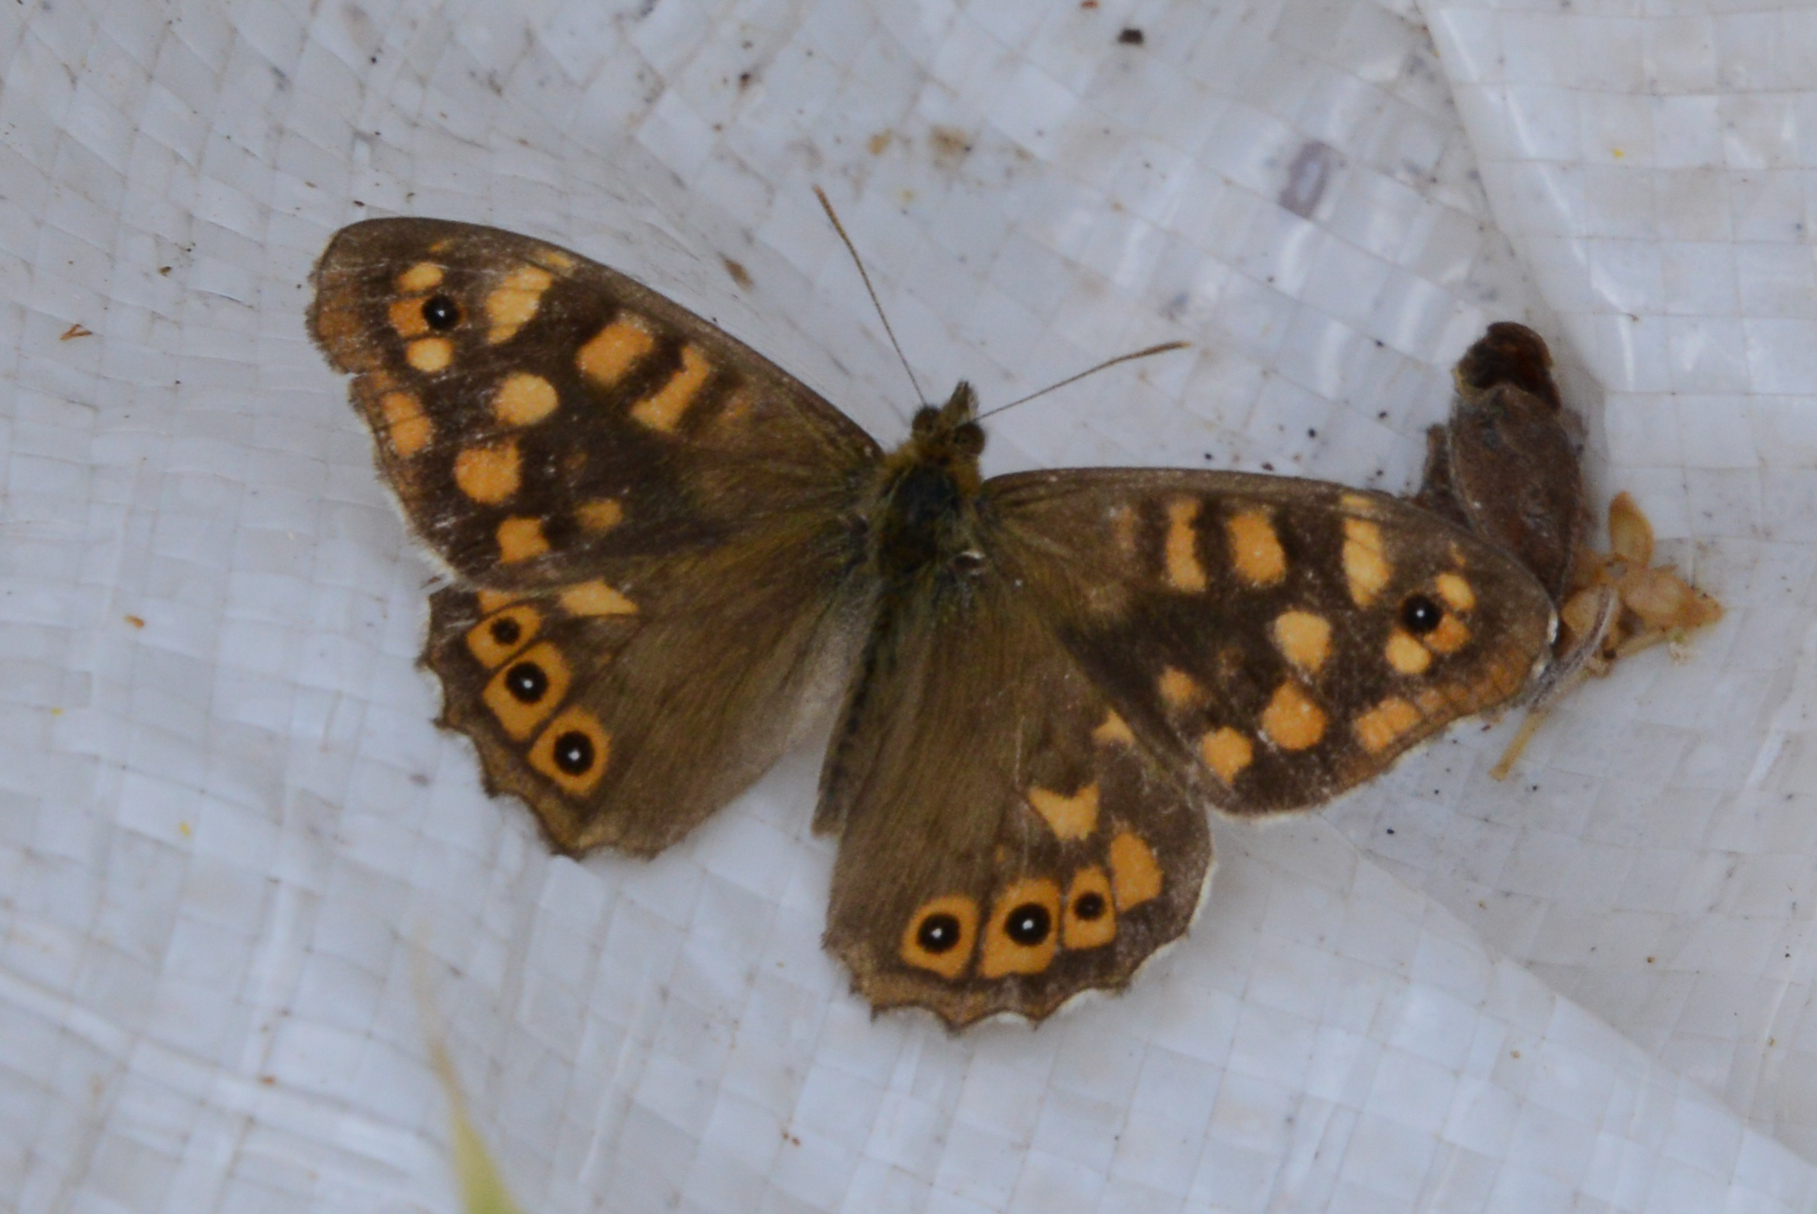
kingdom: Animalia
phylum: Arthropoda
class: Insecta
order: Lepidoptera
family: Nymphalidae
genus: Pararge
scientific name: Pararge aegeria
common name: Speckled wood
